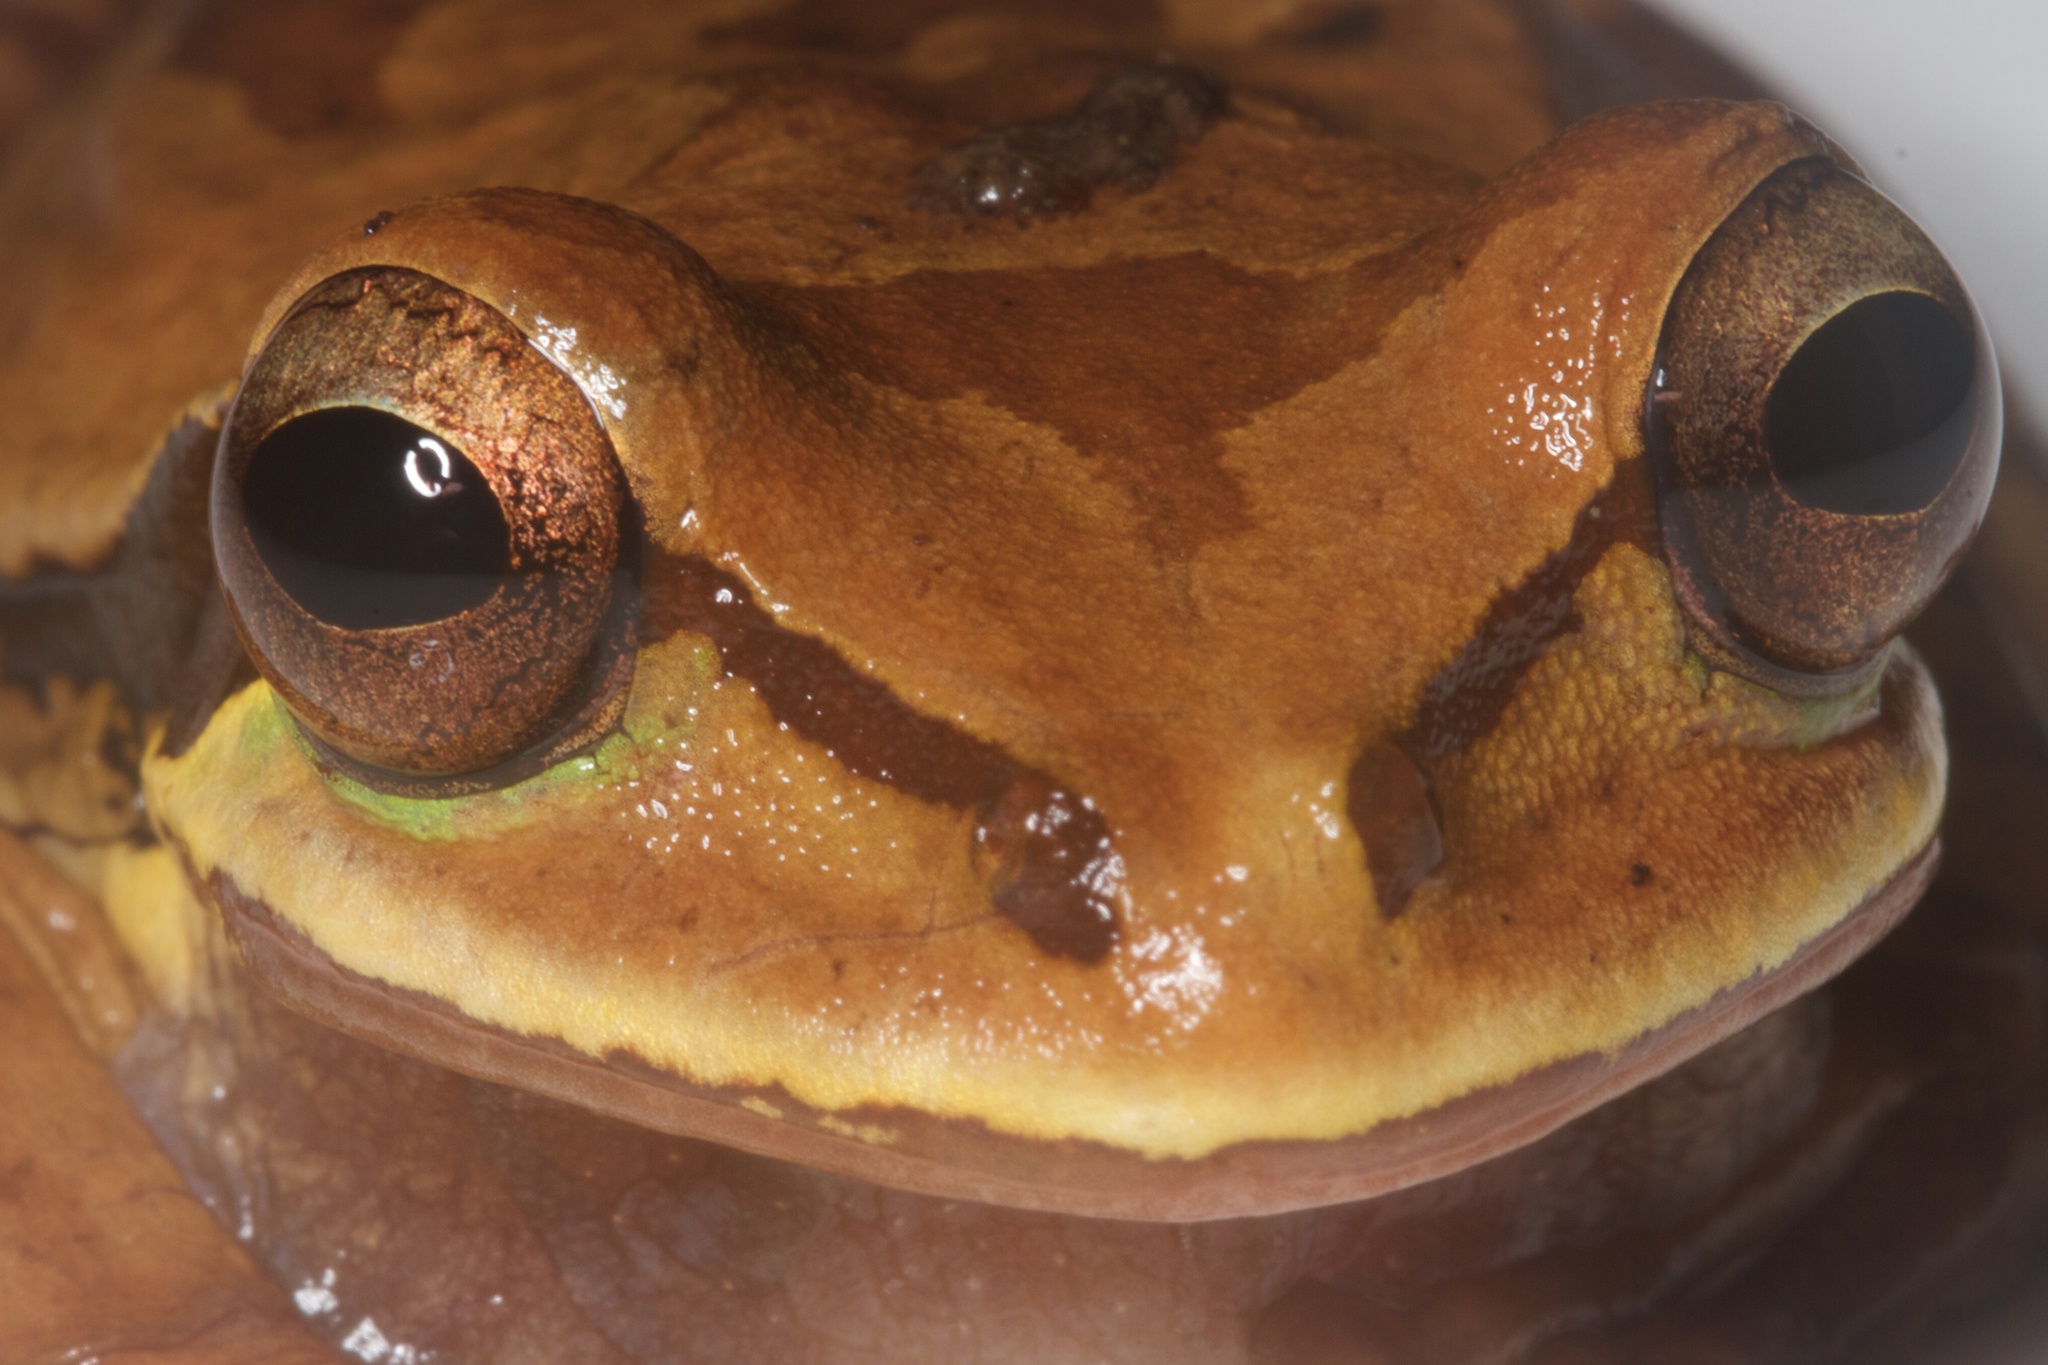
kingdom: Animalia
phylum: Chordata
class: Amphibia
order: Anura
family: Hylidae
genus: Smilisca
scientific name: Smilisca phaeota
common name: Central american smilisca
